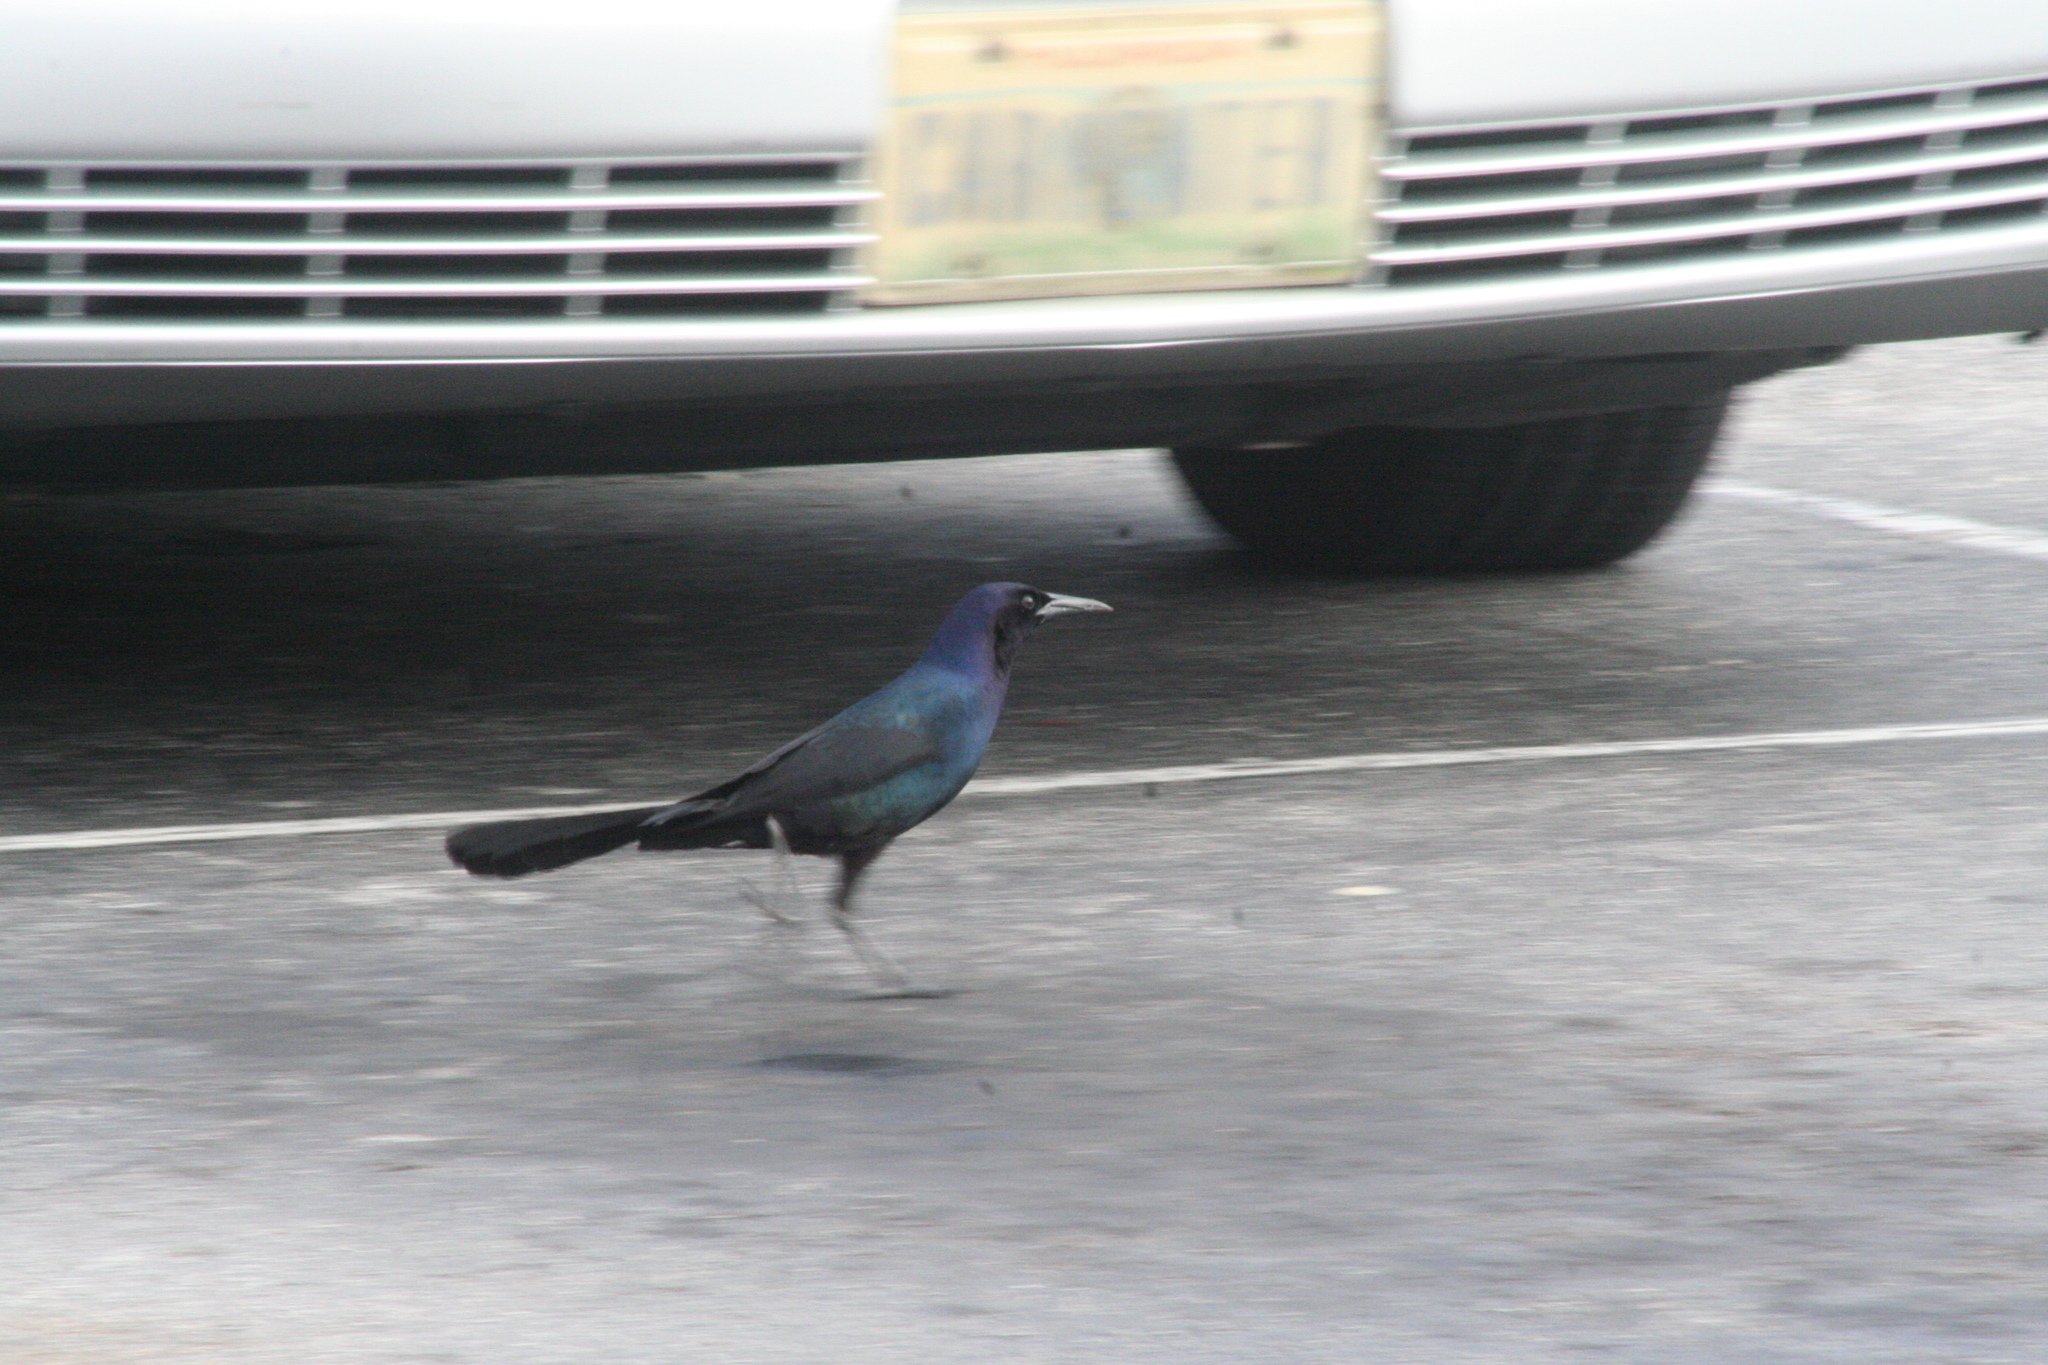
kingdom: Animalia
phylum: Chordata
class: Aves
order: Passeriformes
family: Icteridae
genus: Quiscalus
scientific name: Quiscalus major
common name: Boat-tailed grackle
